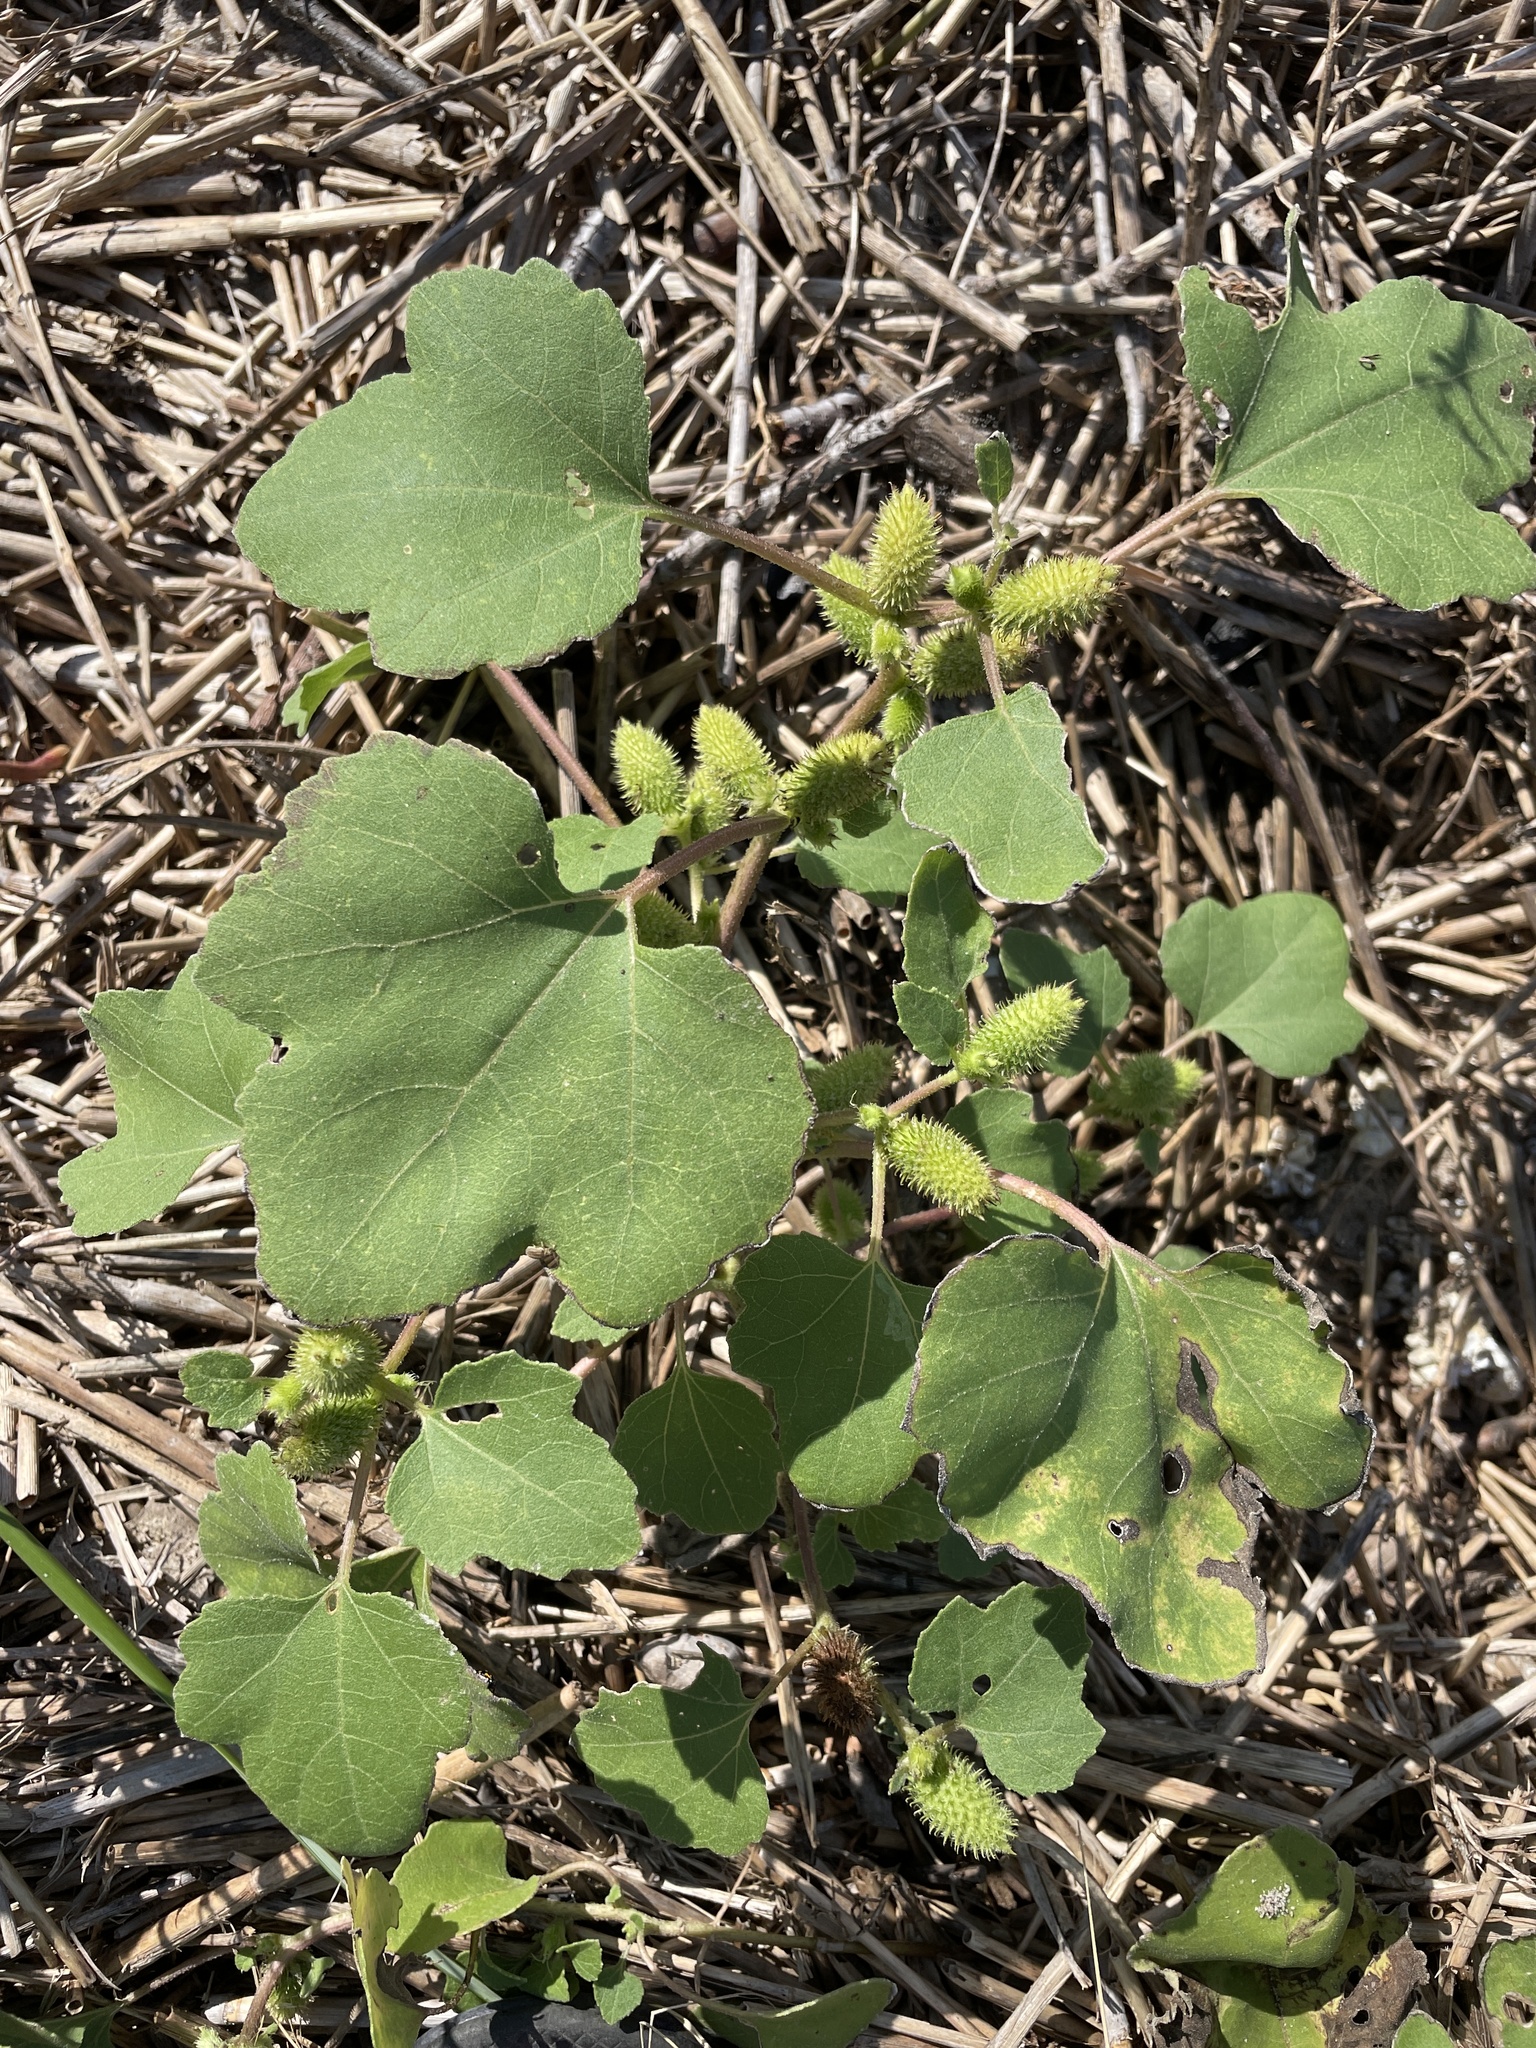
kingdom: Plantae
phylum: Tracheophyta
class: Magnoliopsida
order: Asterales
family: Asteraceae
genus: Xanthium
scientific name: Xanthium strumarium
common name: Rough cocklebur
